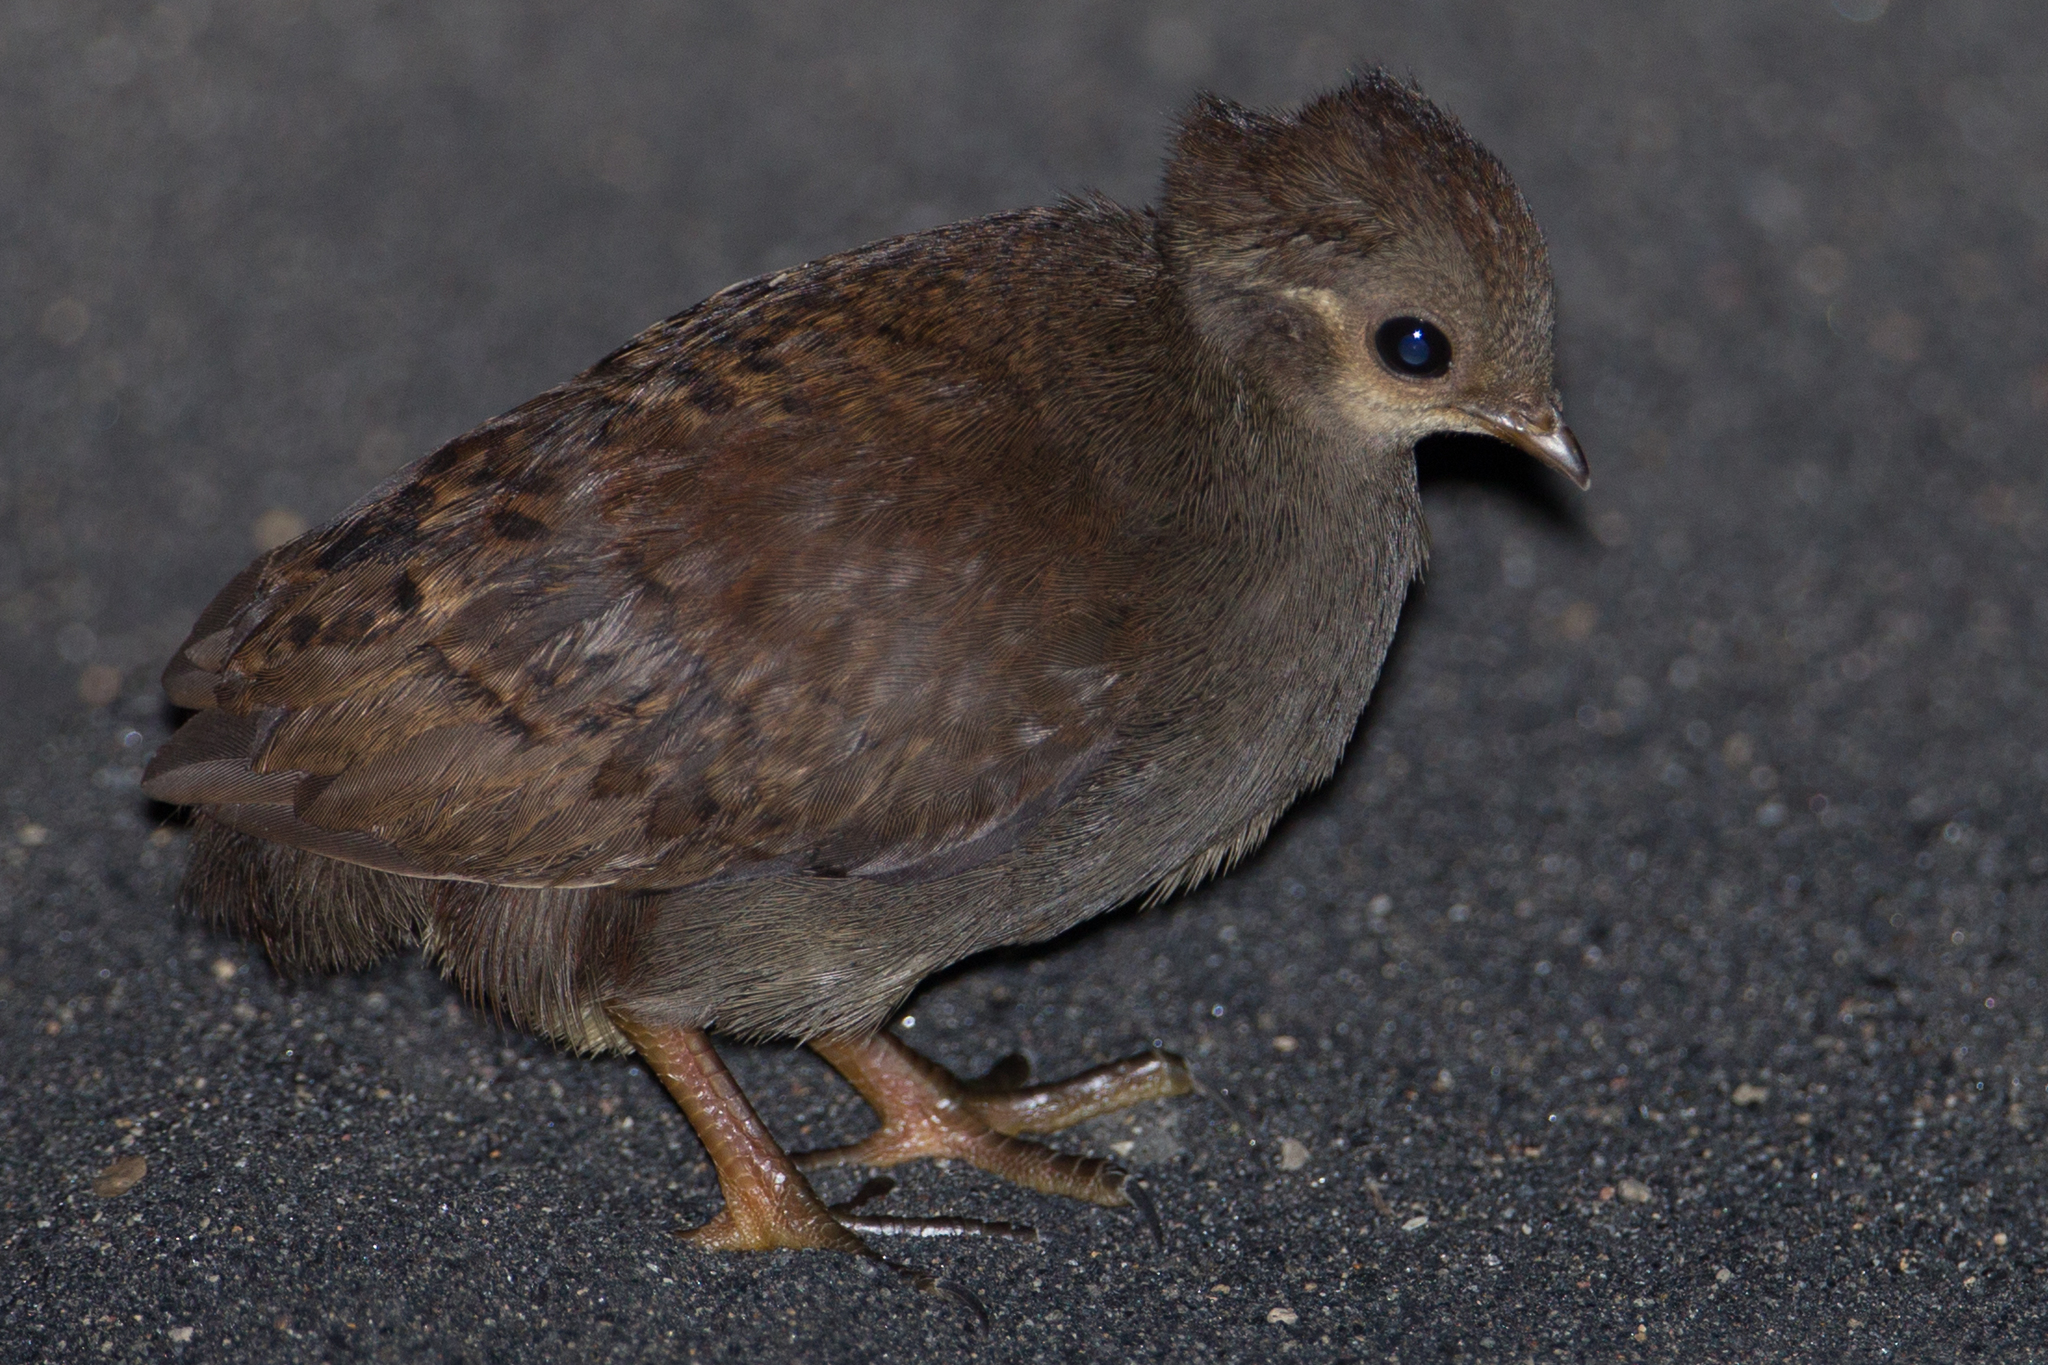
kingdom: Animalia
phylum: Chordata
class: Aves
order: Galliformes
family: Megapodiidae
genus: Eulipoa
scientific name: Eulipoa wallacei
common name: Moluccan megapode
